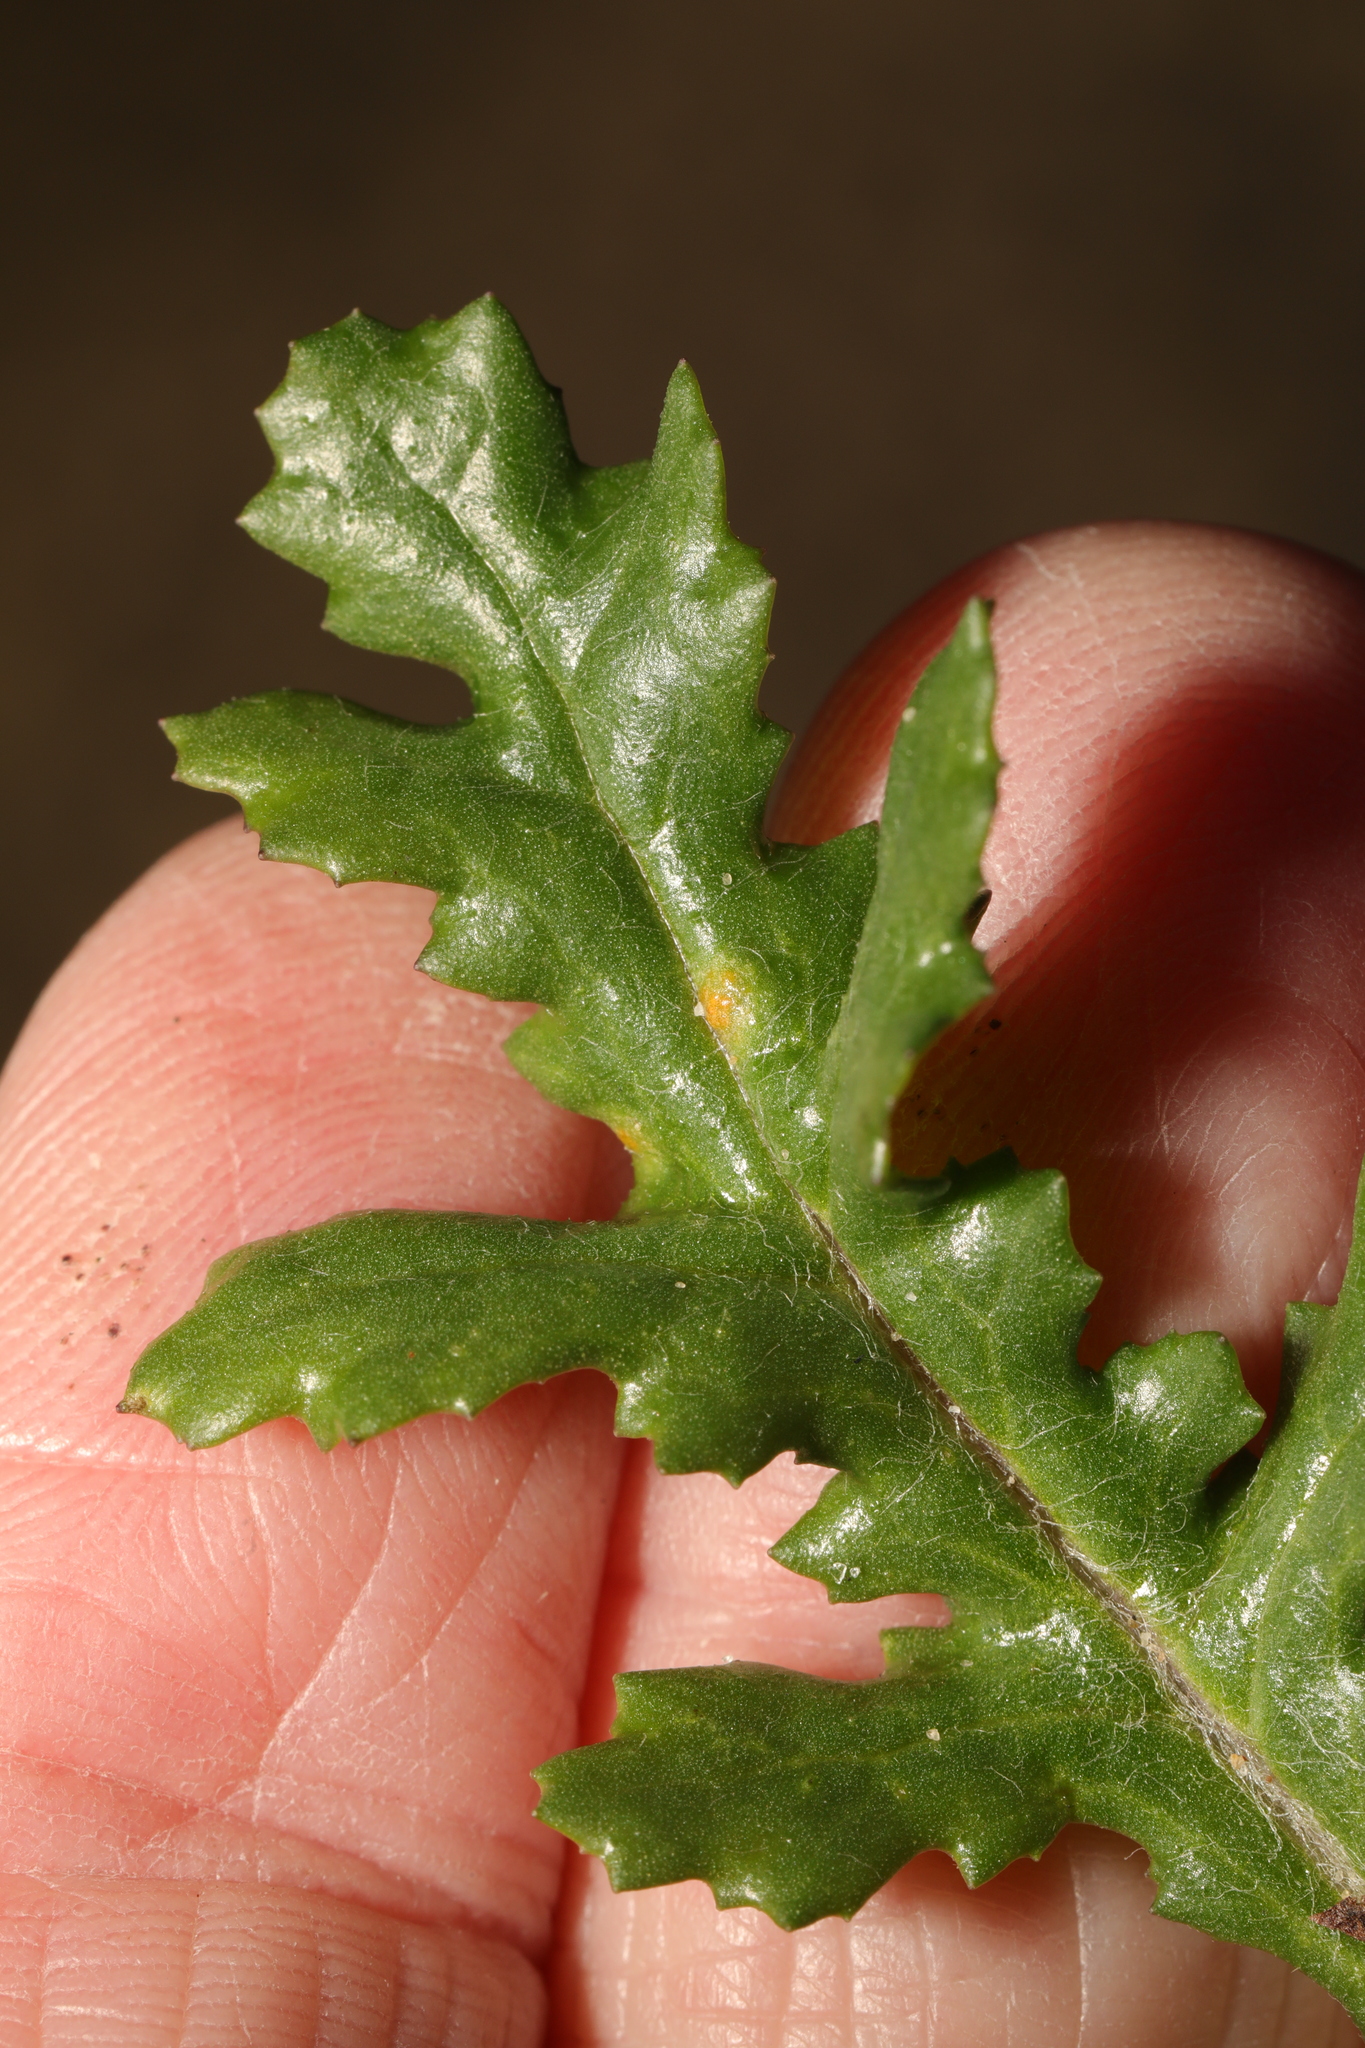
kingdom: Fungi
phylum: Basidiomycota
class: Pucciniomycetes
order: Pucciniales
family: Pucciniaceae
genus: Puccinia
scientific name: Puccinia lagenophorae
